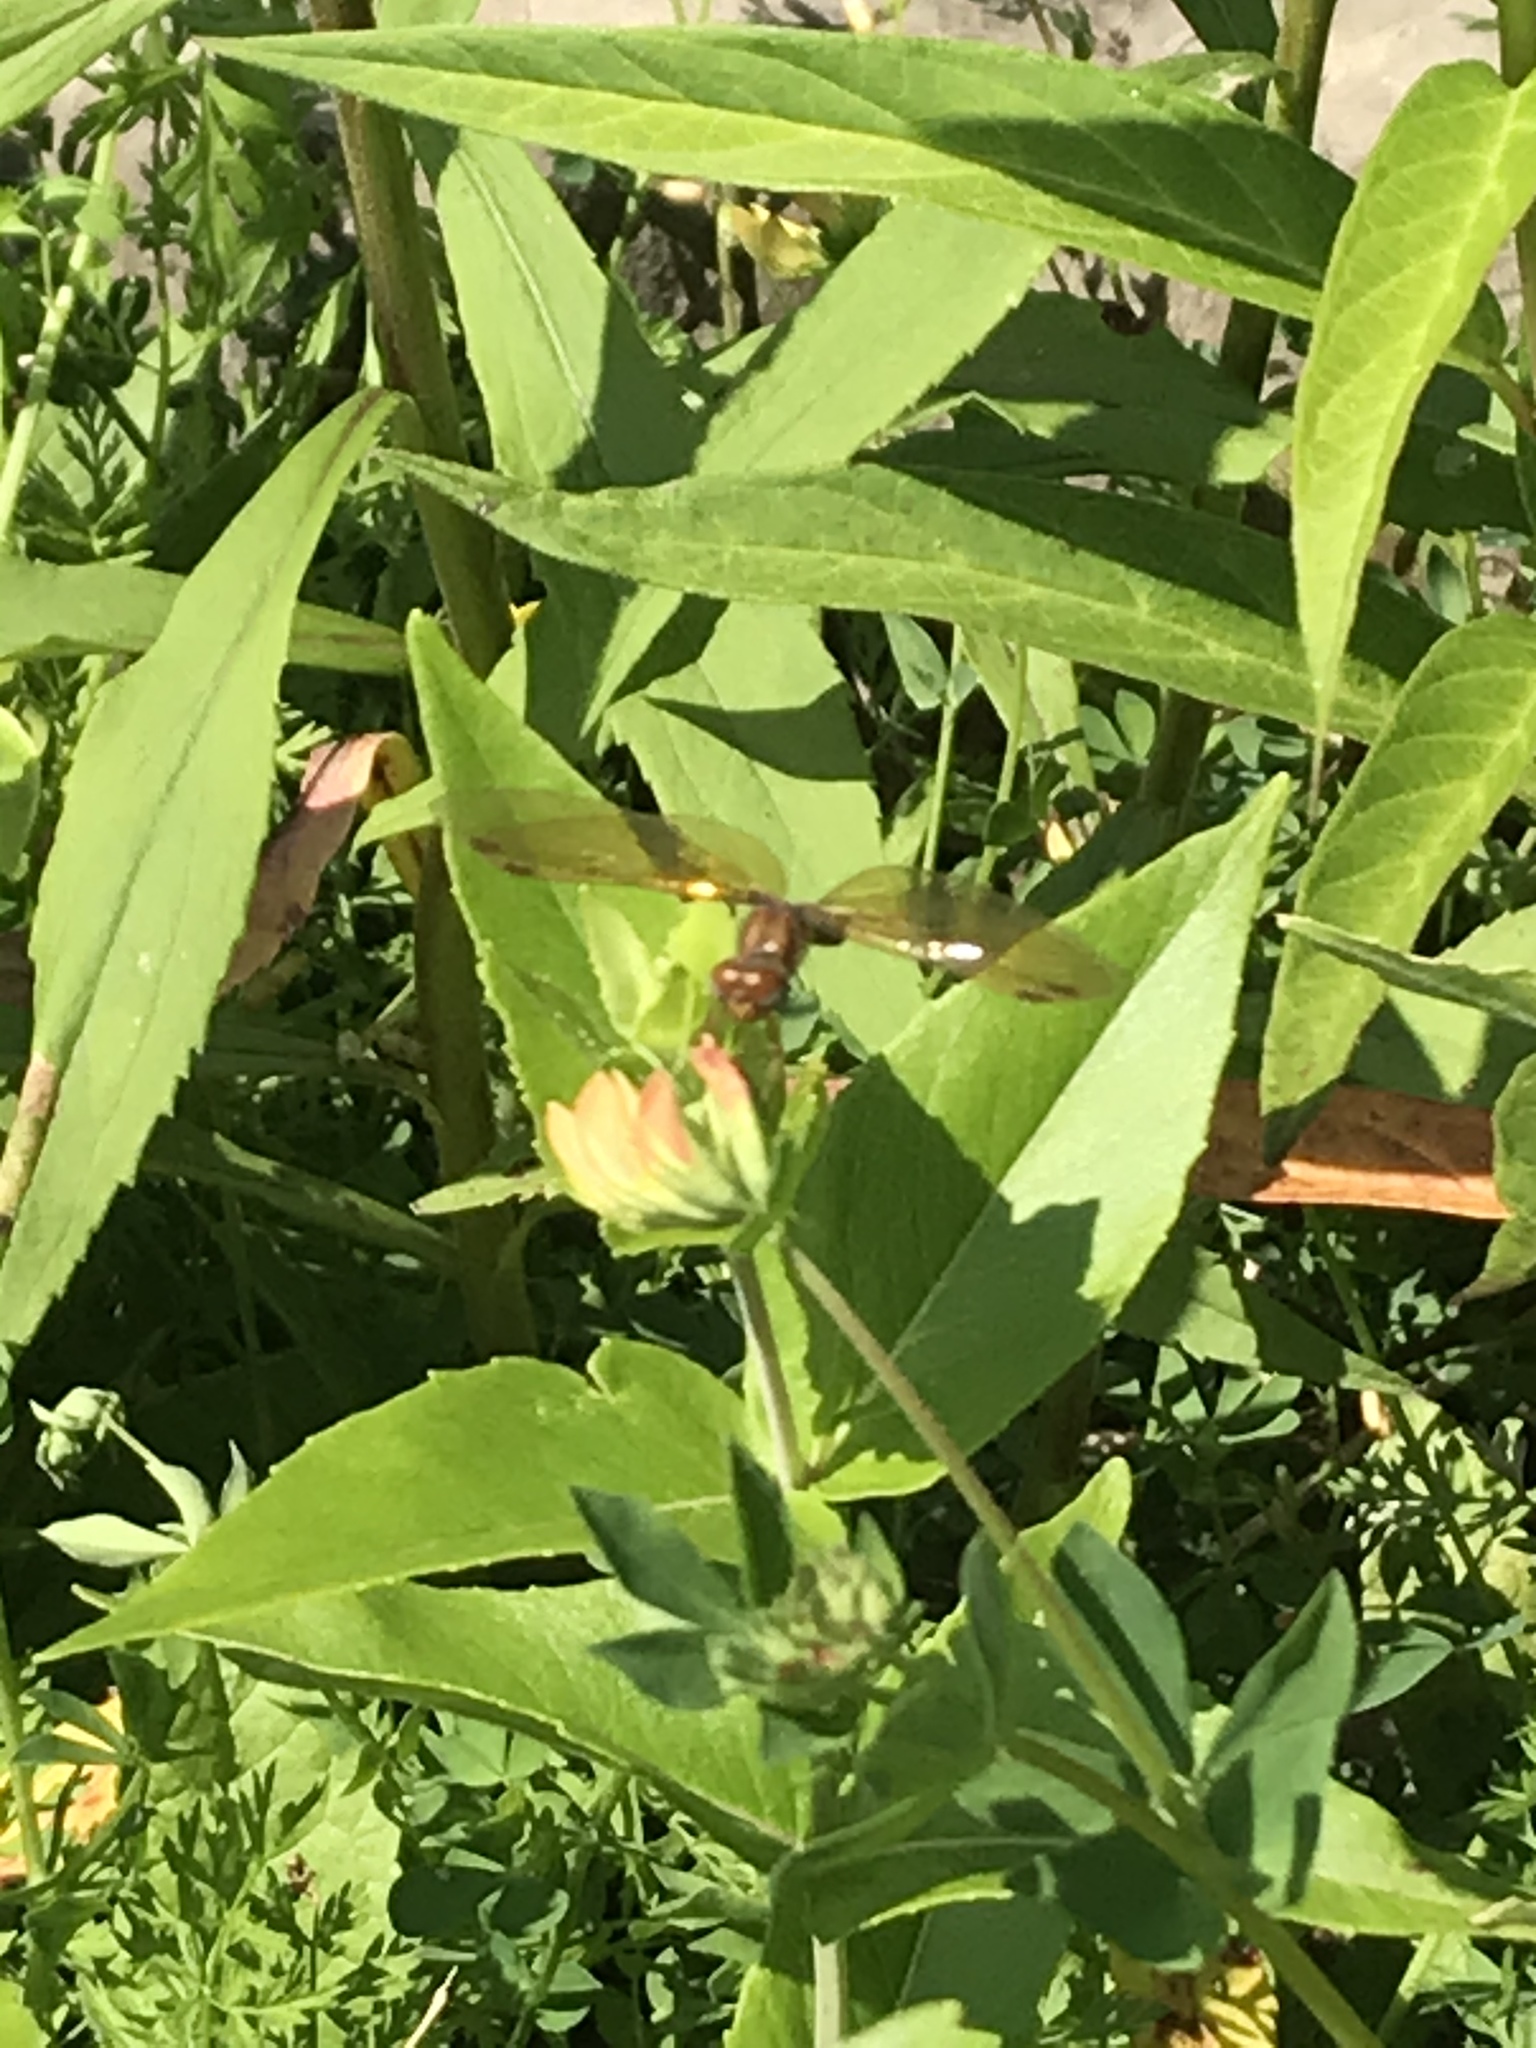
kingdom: Animalia
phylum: Arthropoda
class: Insecta
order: Odonata
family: Libellulidae
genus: Perithemis
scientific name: Perithemis tenera
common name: Eastern amberwing
